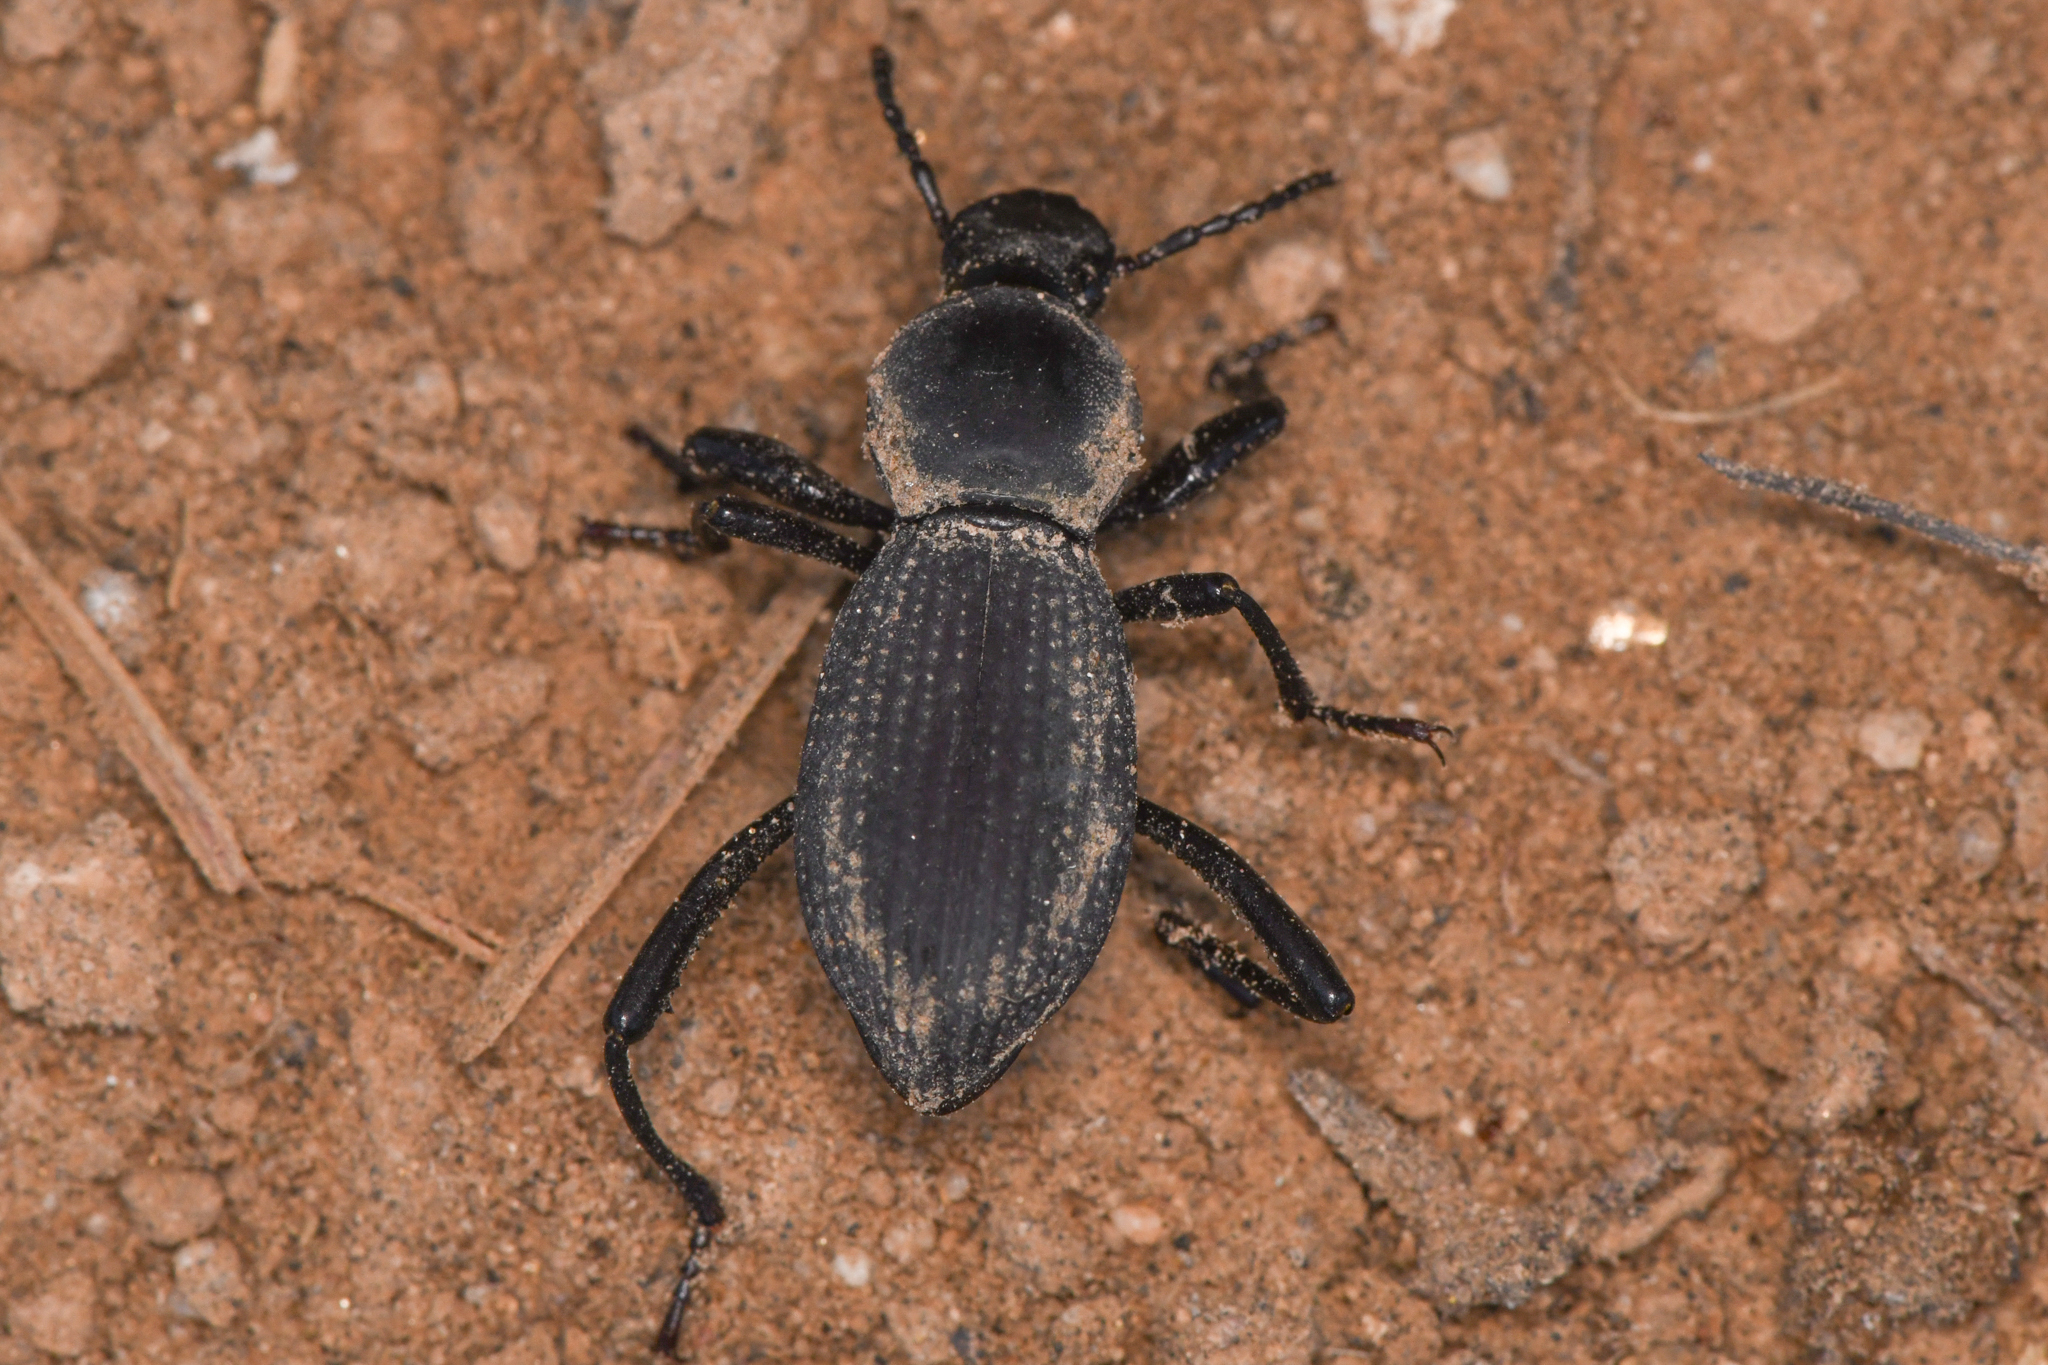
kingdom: Animalia
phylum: Arthropoda
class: Insecta
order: Coleoptera
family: Tenebrionidae
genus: Cerenopus
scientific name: Cerenopus concolor
